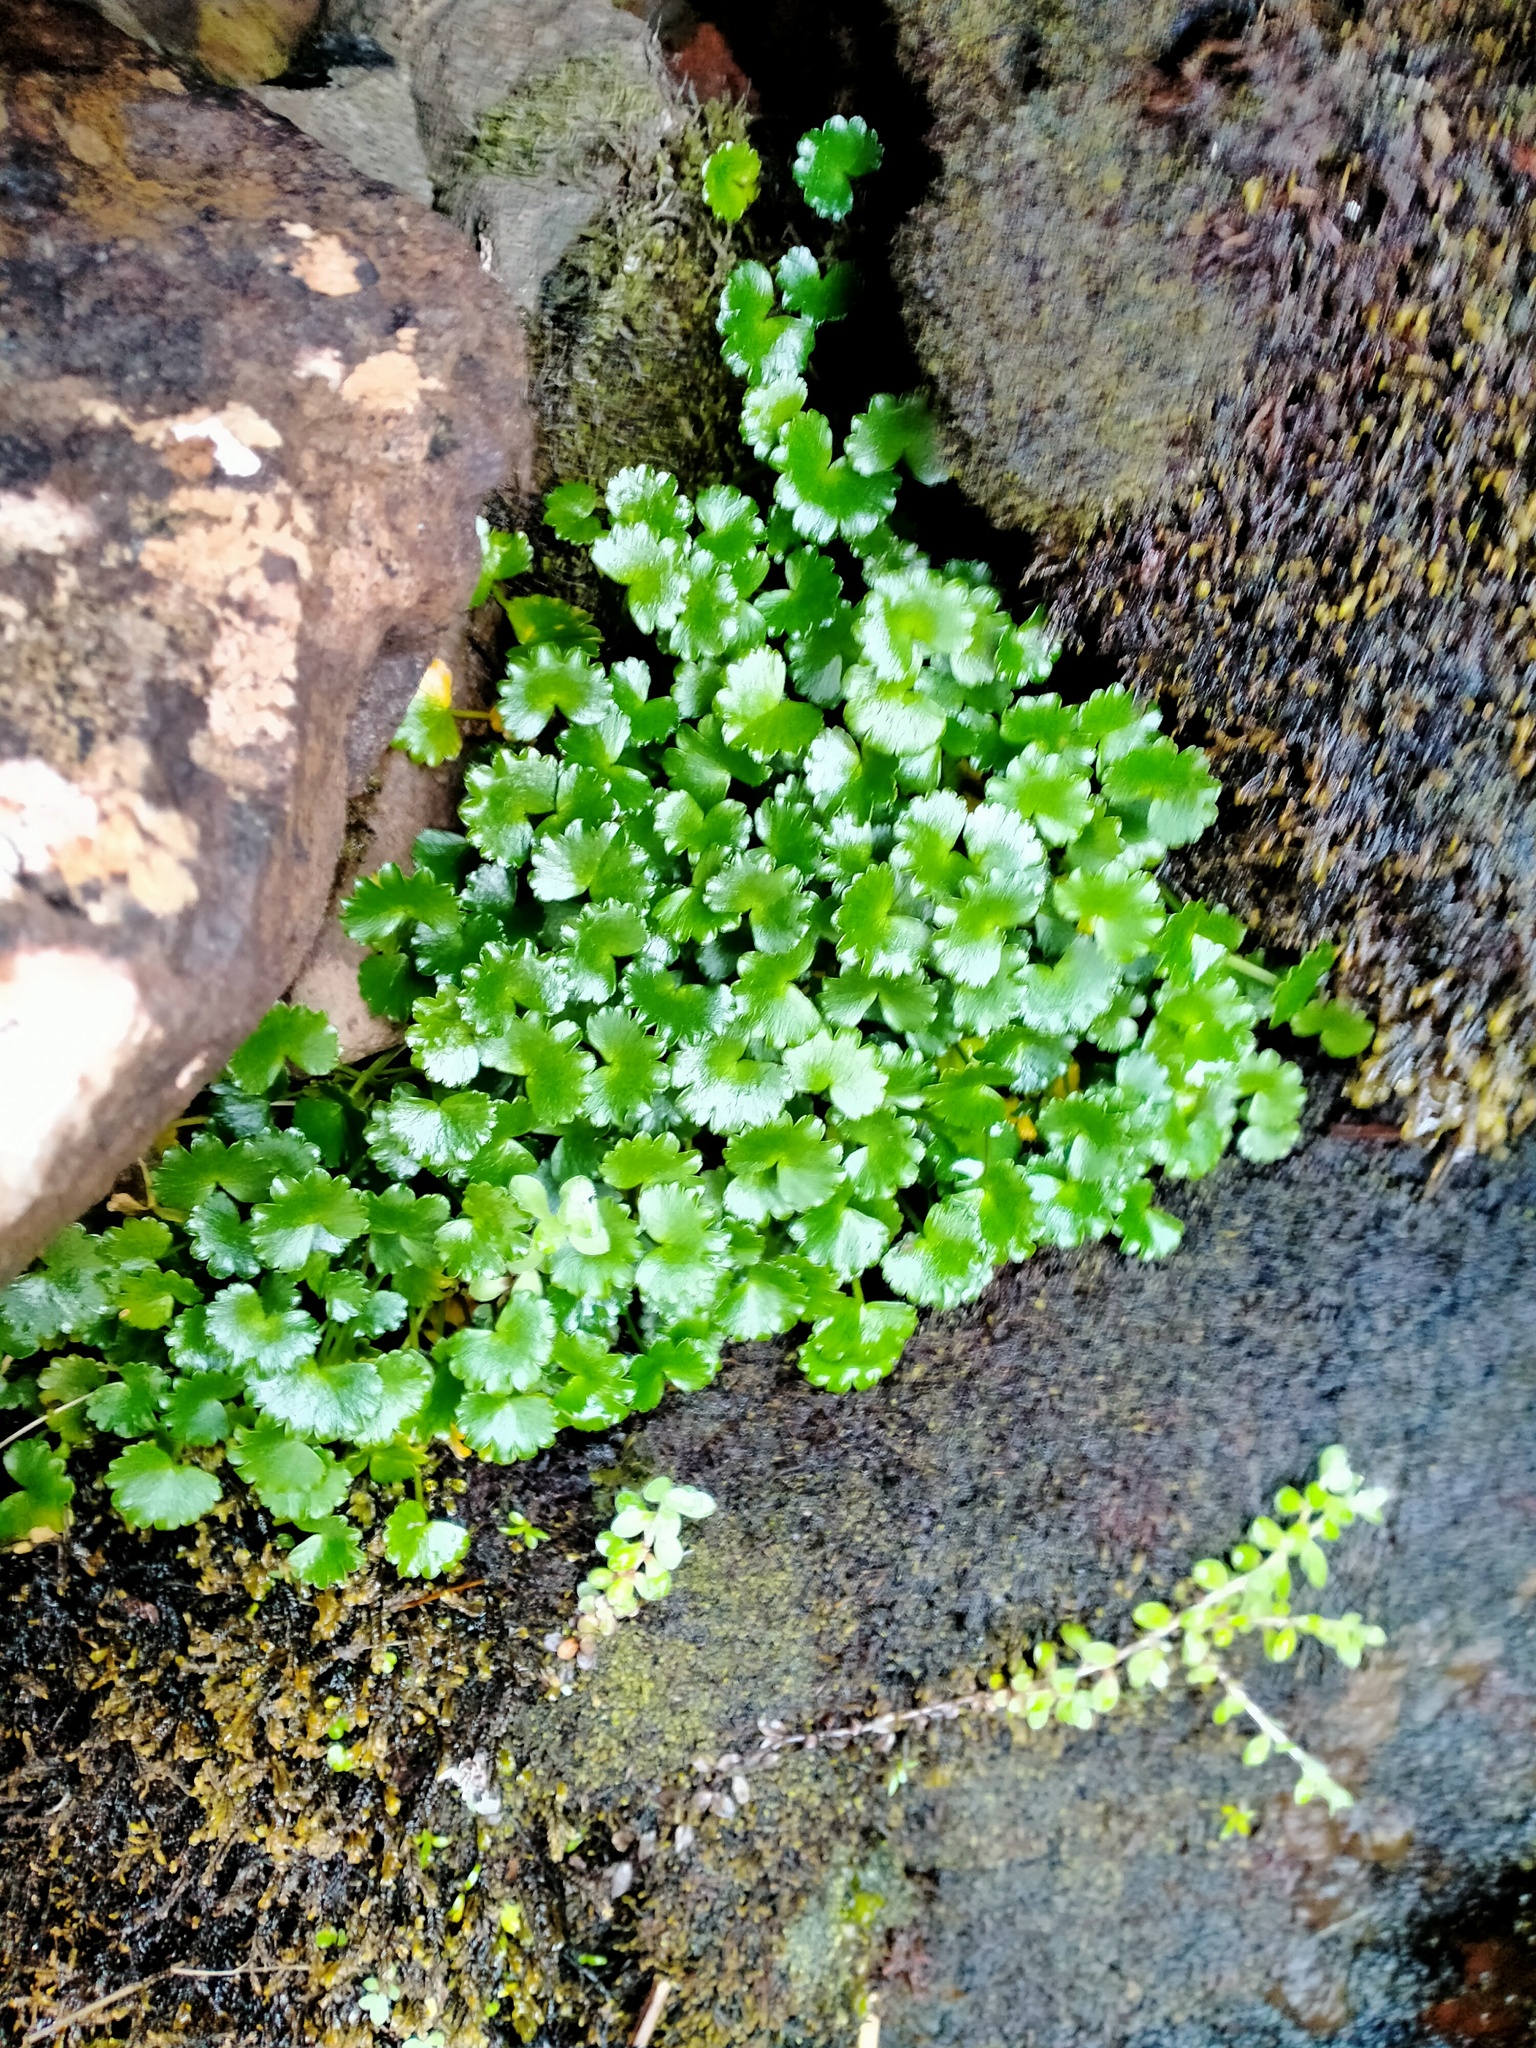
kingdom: Plantae
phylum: Tracheophyta
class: Magnoliopsida
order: Apiales
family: Apiaceae
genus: Azorella
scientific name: Azorella schizeilema
